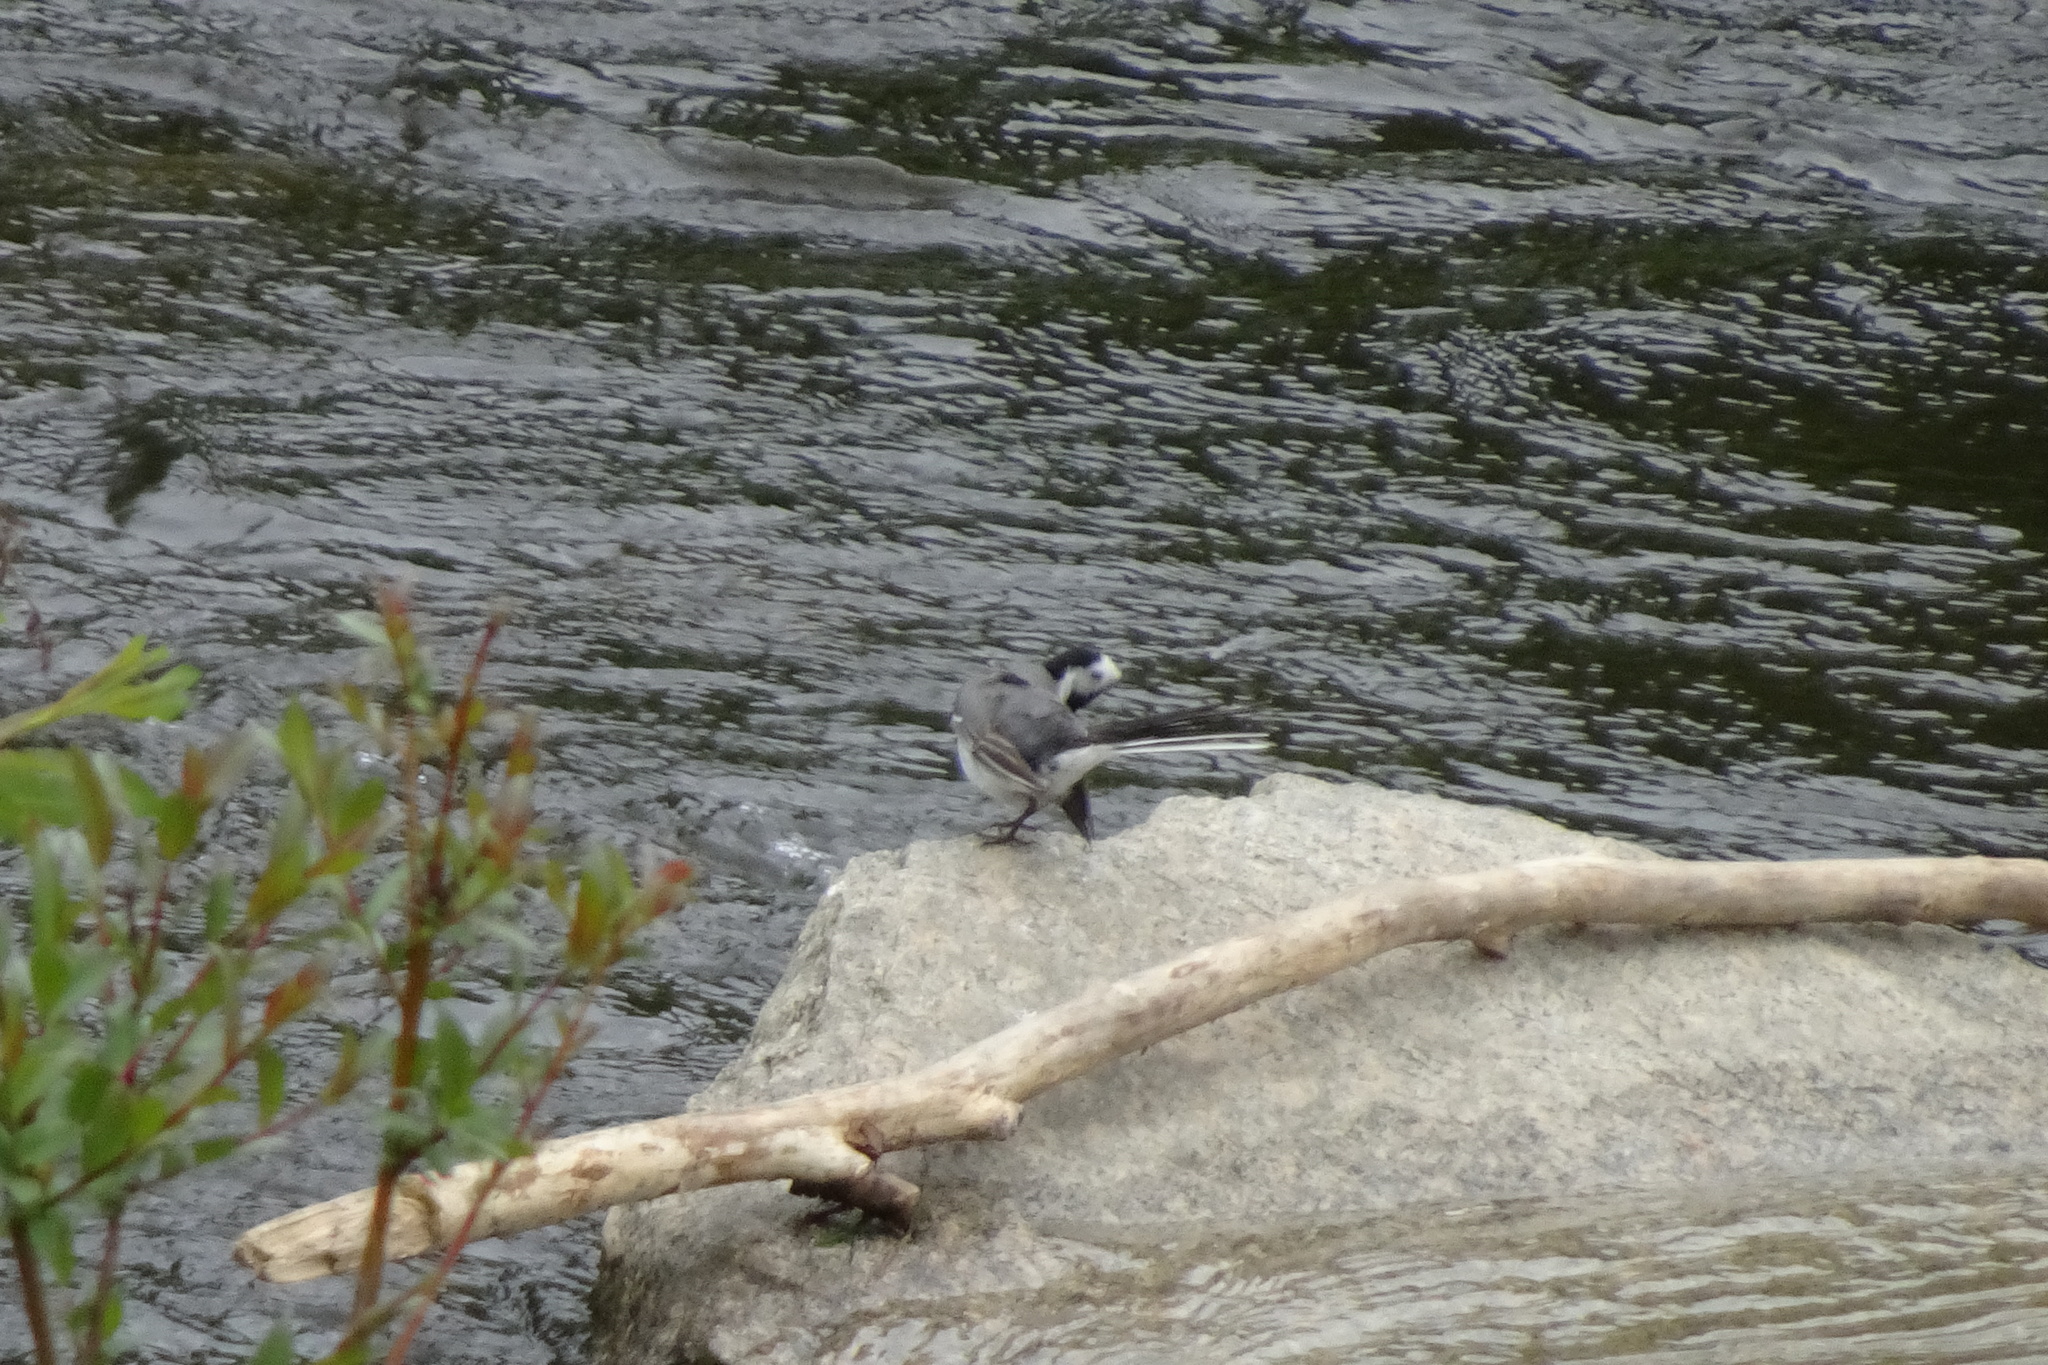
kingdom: Animalia
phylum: Chordata
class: Aves
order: Passeriformes
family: Motacillidae
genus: Motacilla
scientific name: Motacilla alba
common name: White wagtail
